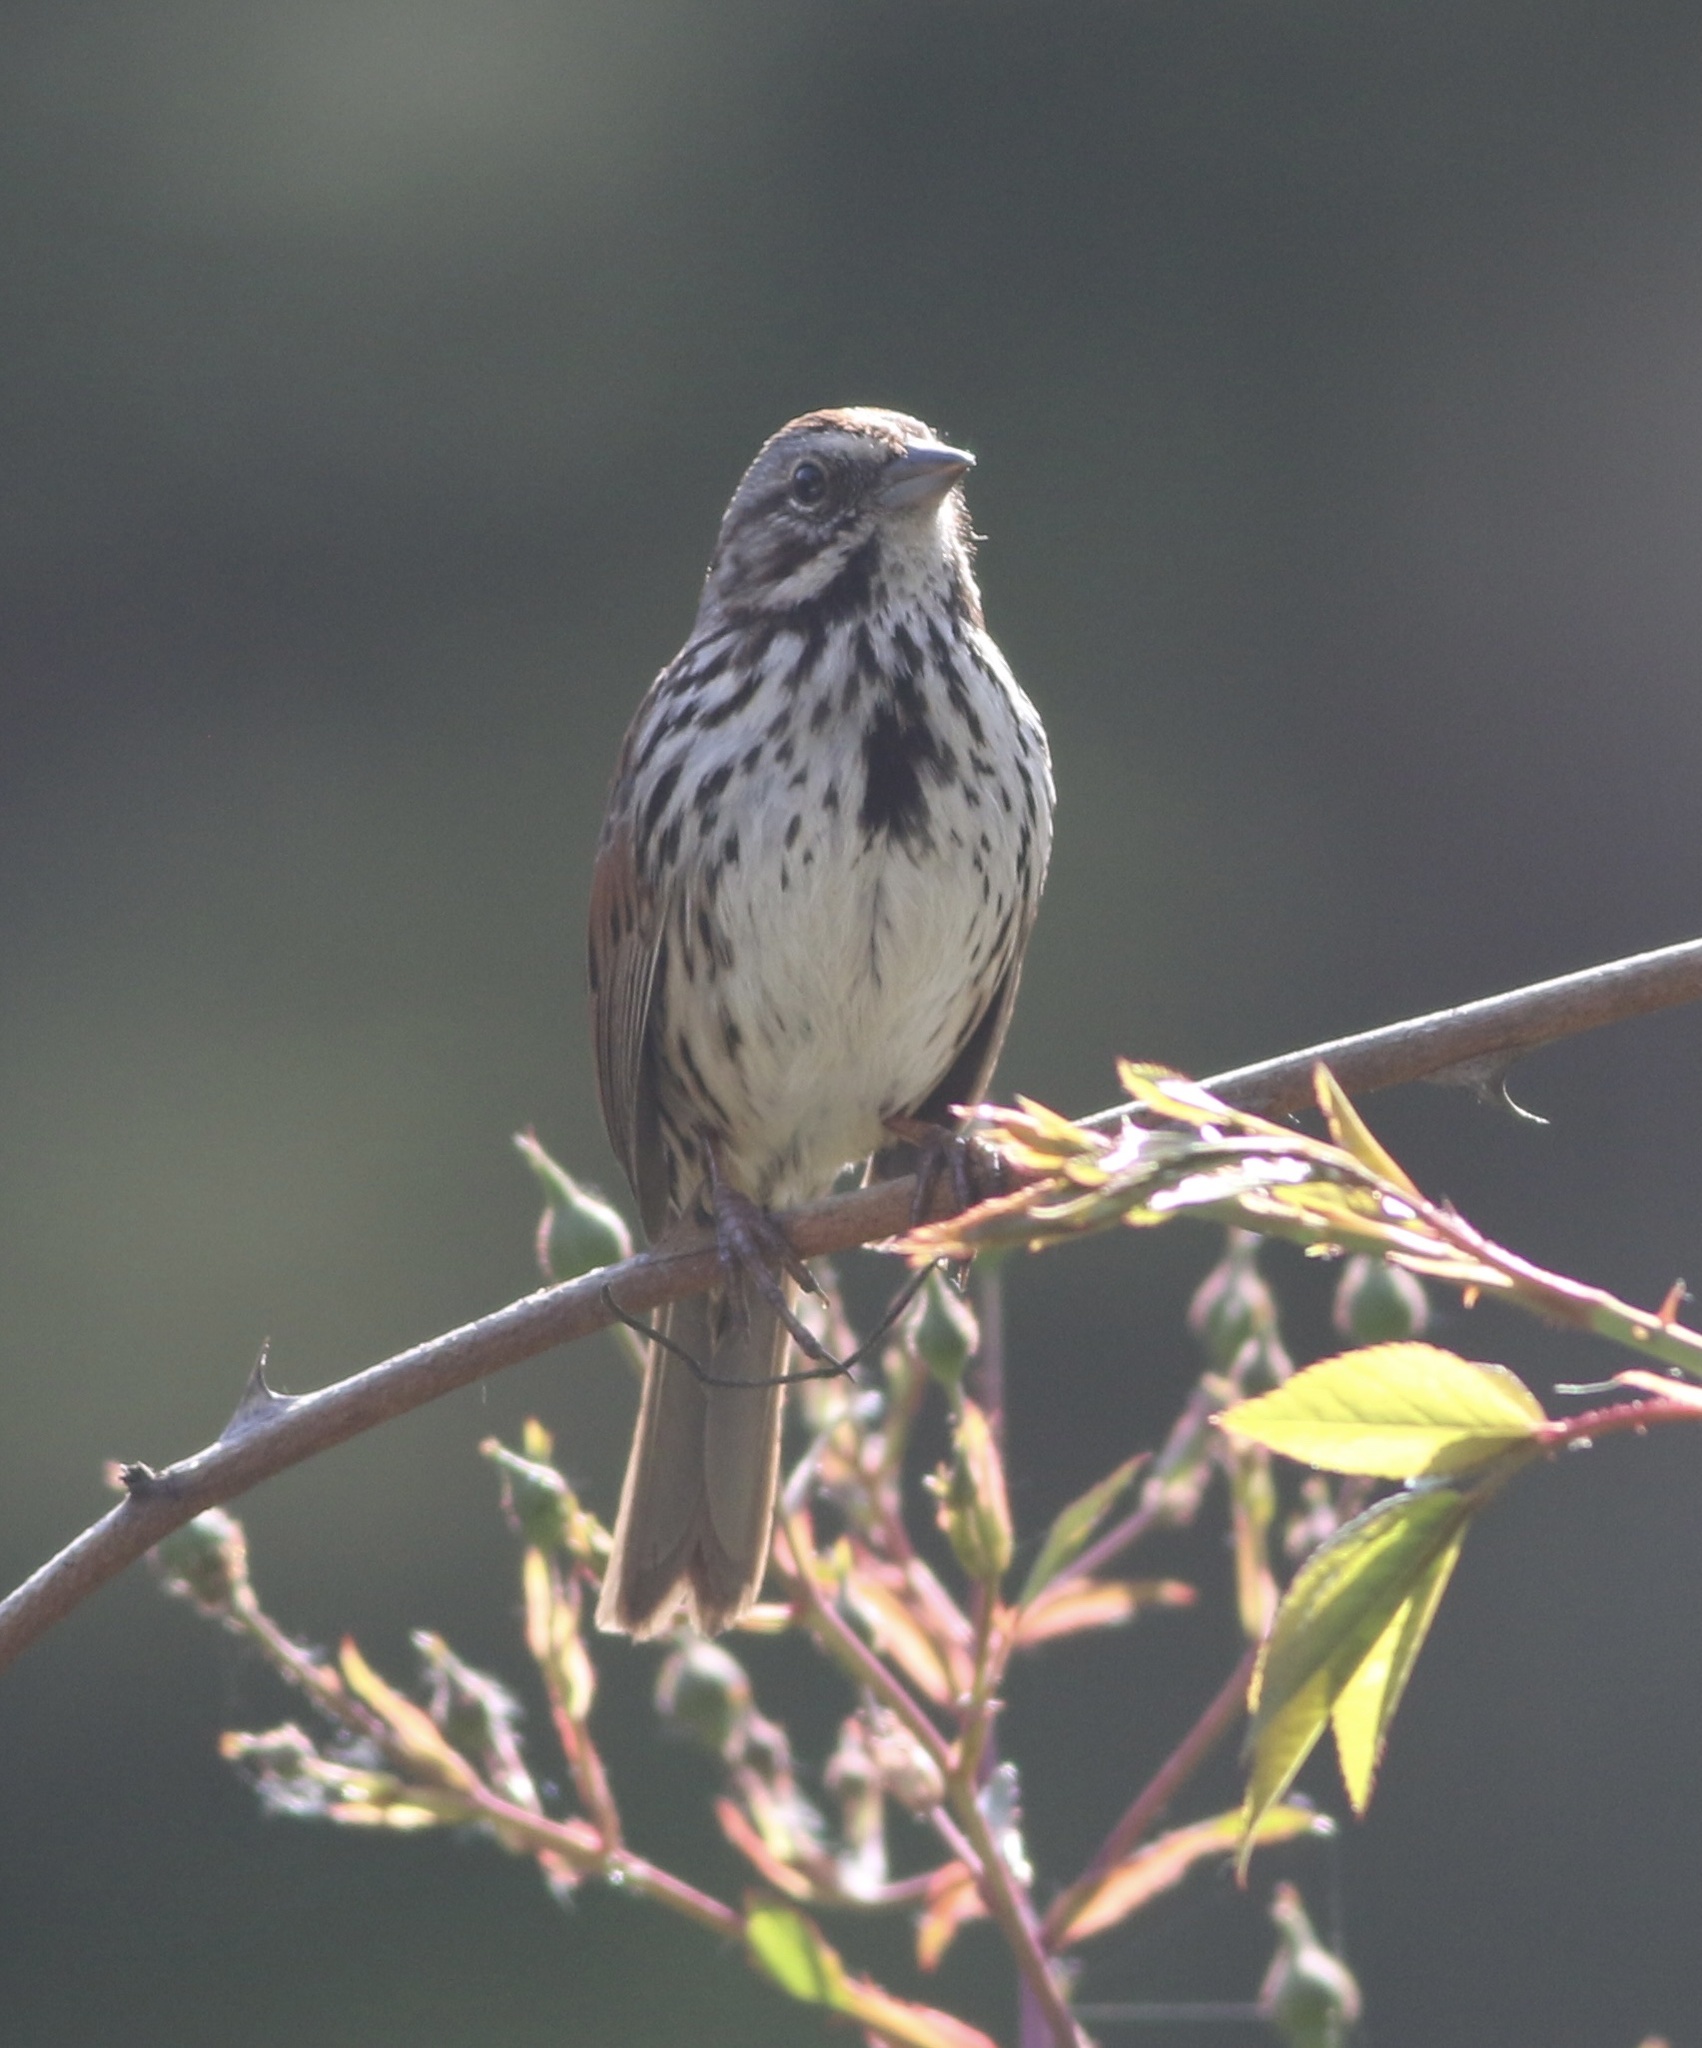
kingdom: Animalia
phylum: Chordata
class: Aves
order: Passeriformes
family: Passerellidae
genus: Melospiza
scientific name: Melospiza melodia
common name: Song sparrow
